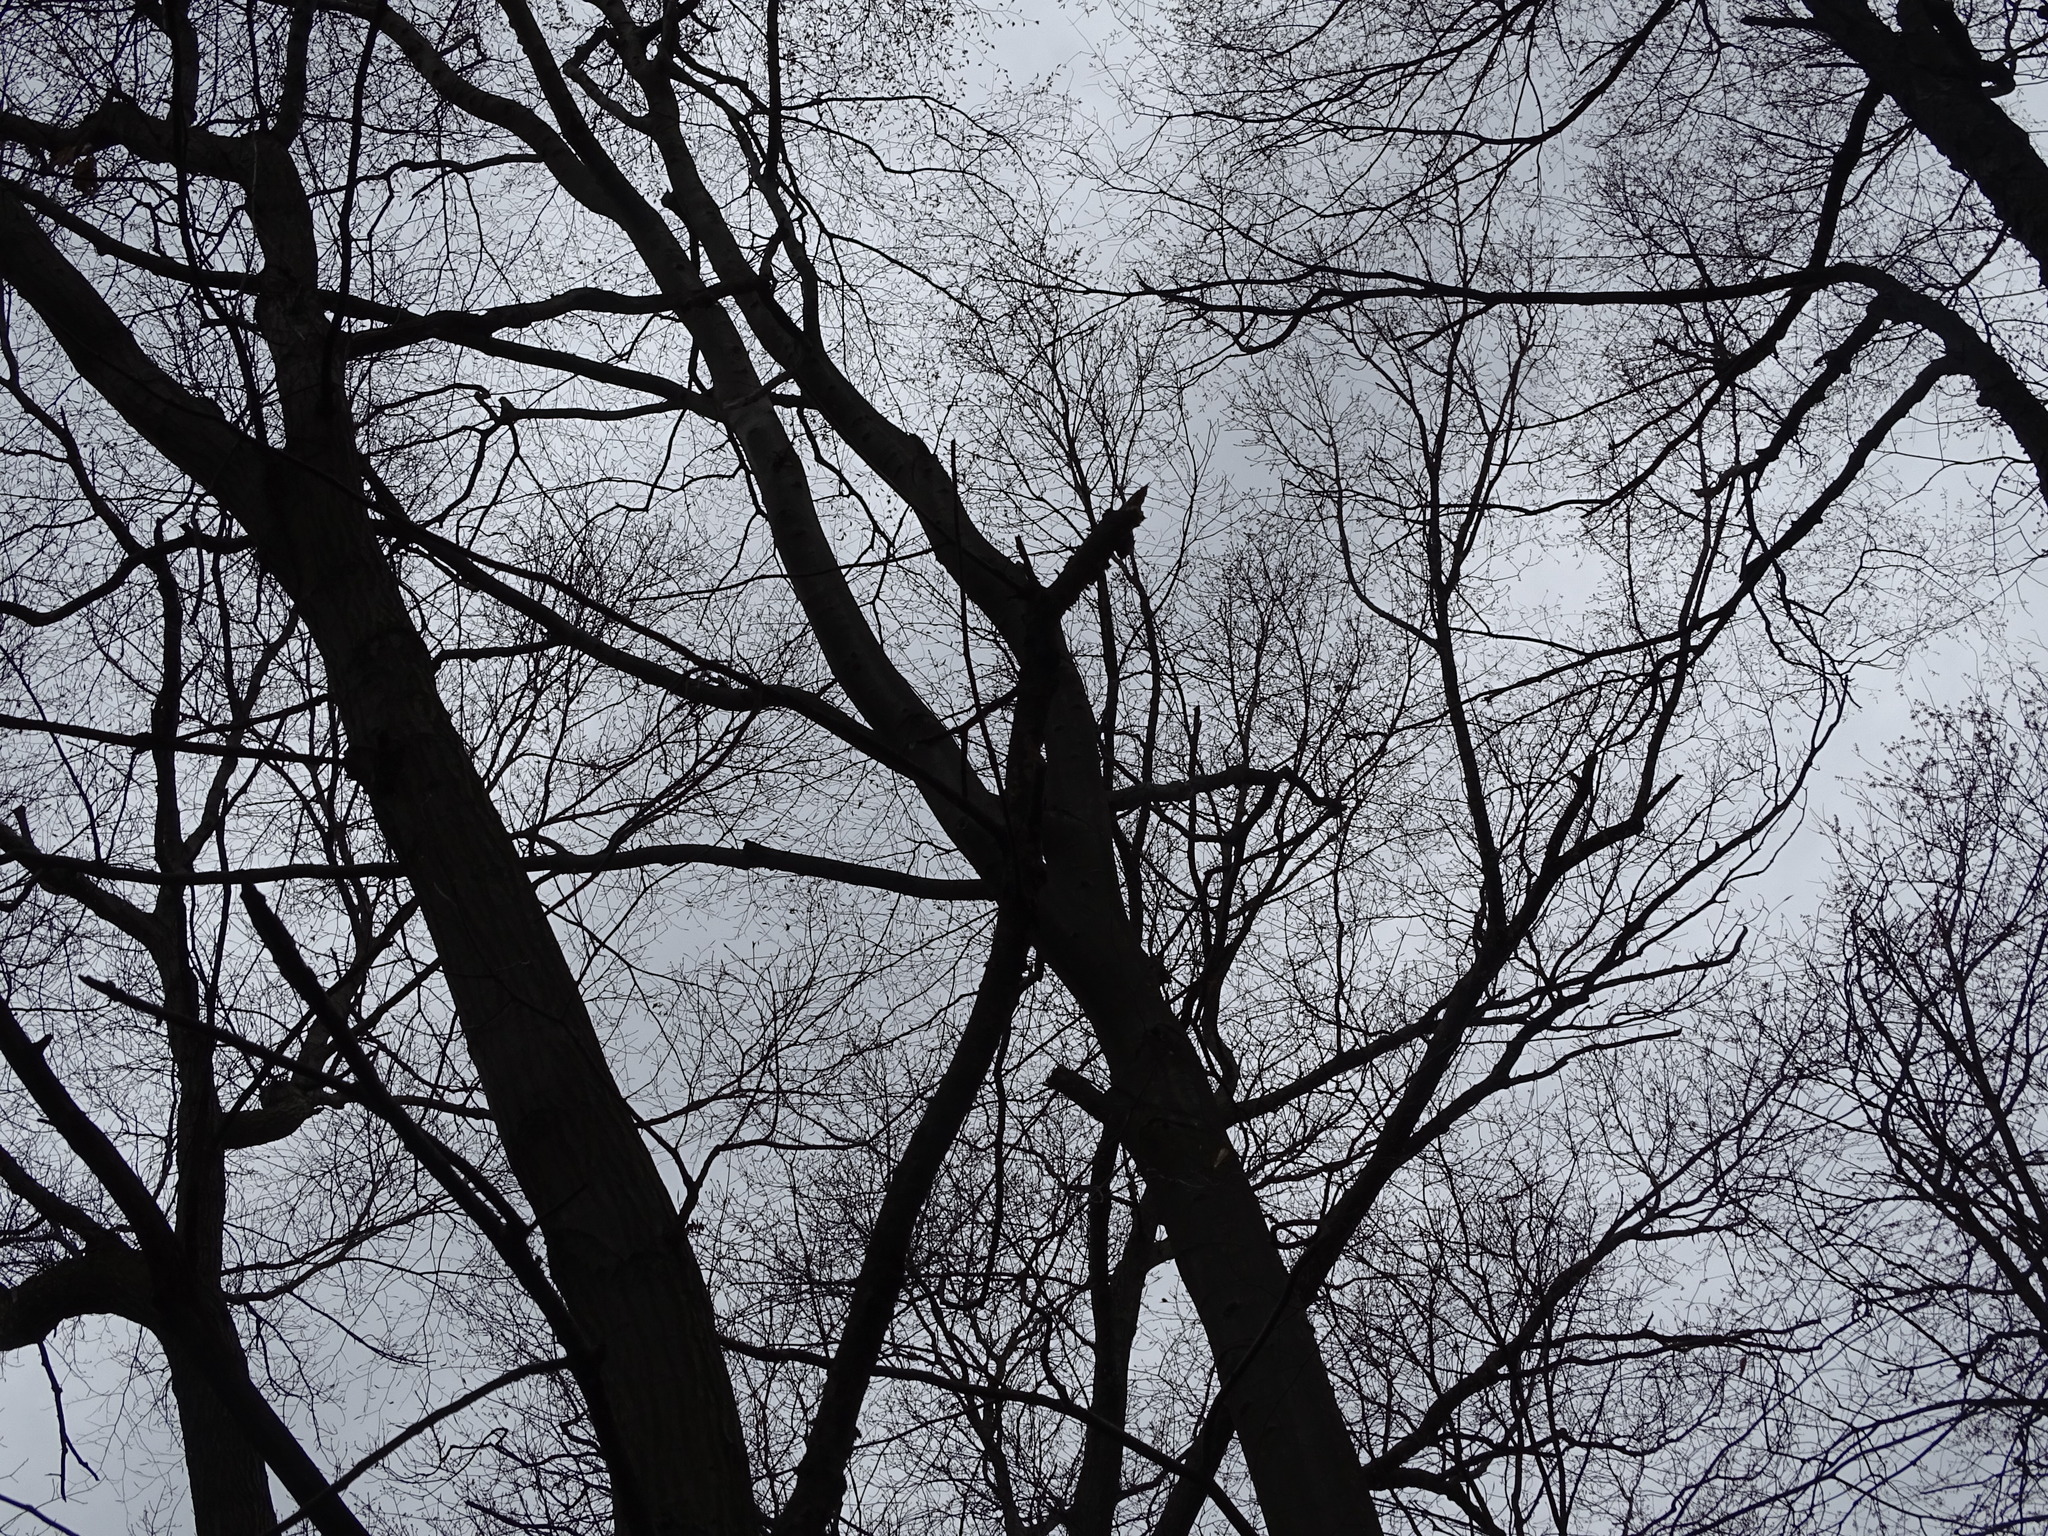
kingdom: Plantae
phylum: Tracheophyta
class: Magnoliopsida
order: Fagales
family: Fagaceae
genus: Fagus
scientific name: Fagus grandifolia
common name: American beech
